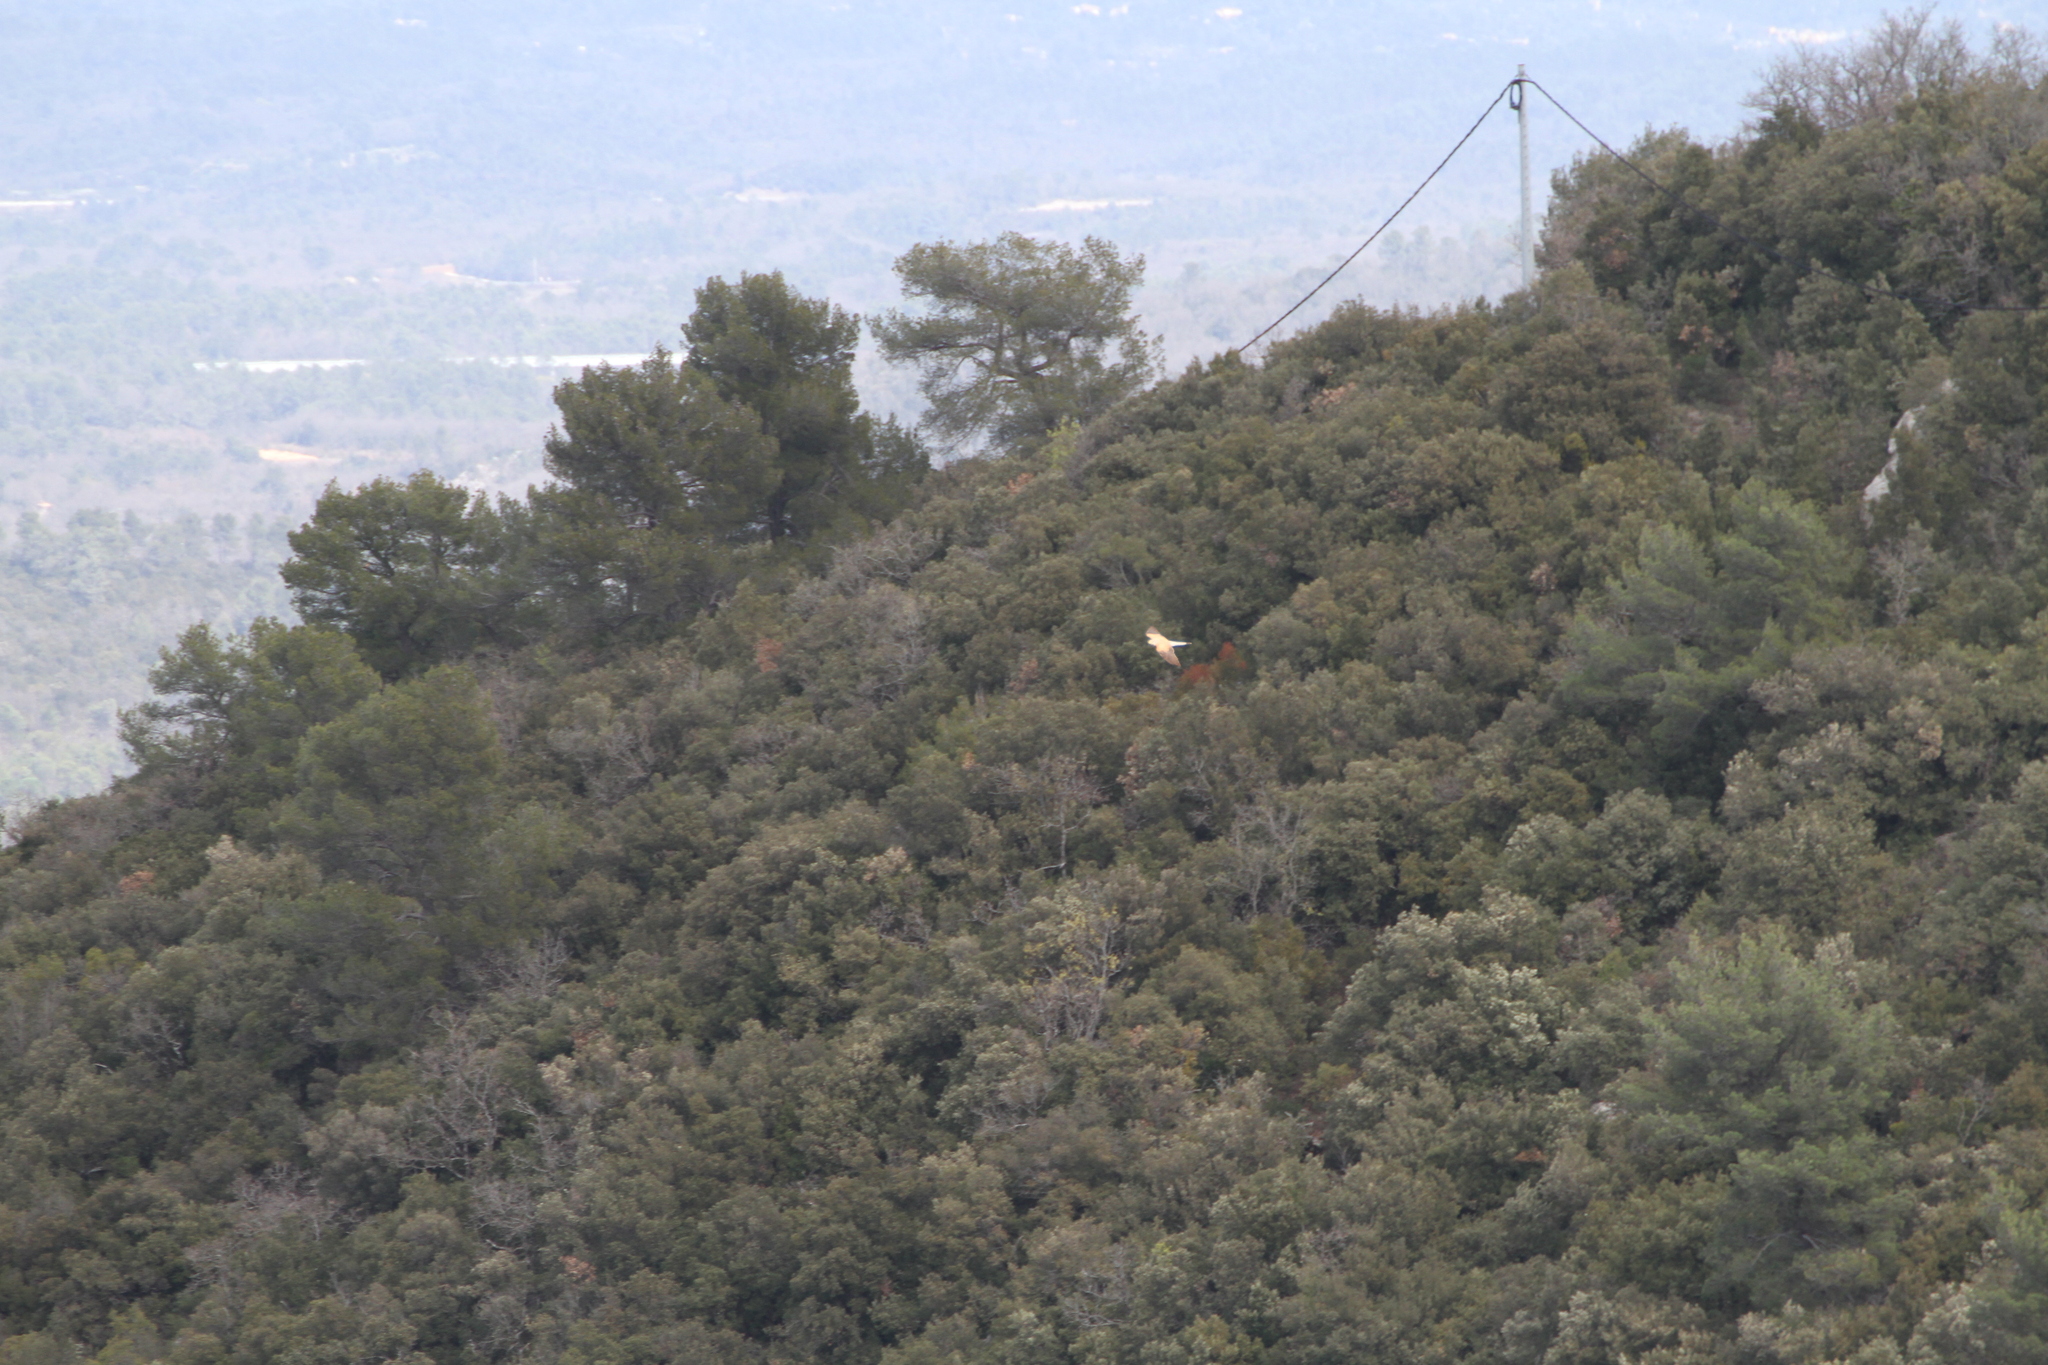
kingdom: Animalia
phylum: Chordata
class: Aves
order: Falconiformes
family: Falconidae
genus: Falco
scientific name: Falco tinnunculus
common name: Common kestrel
